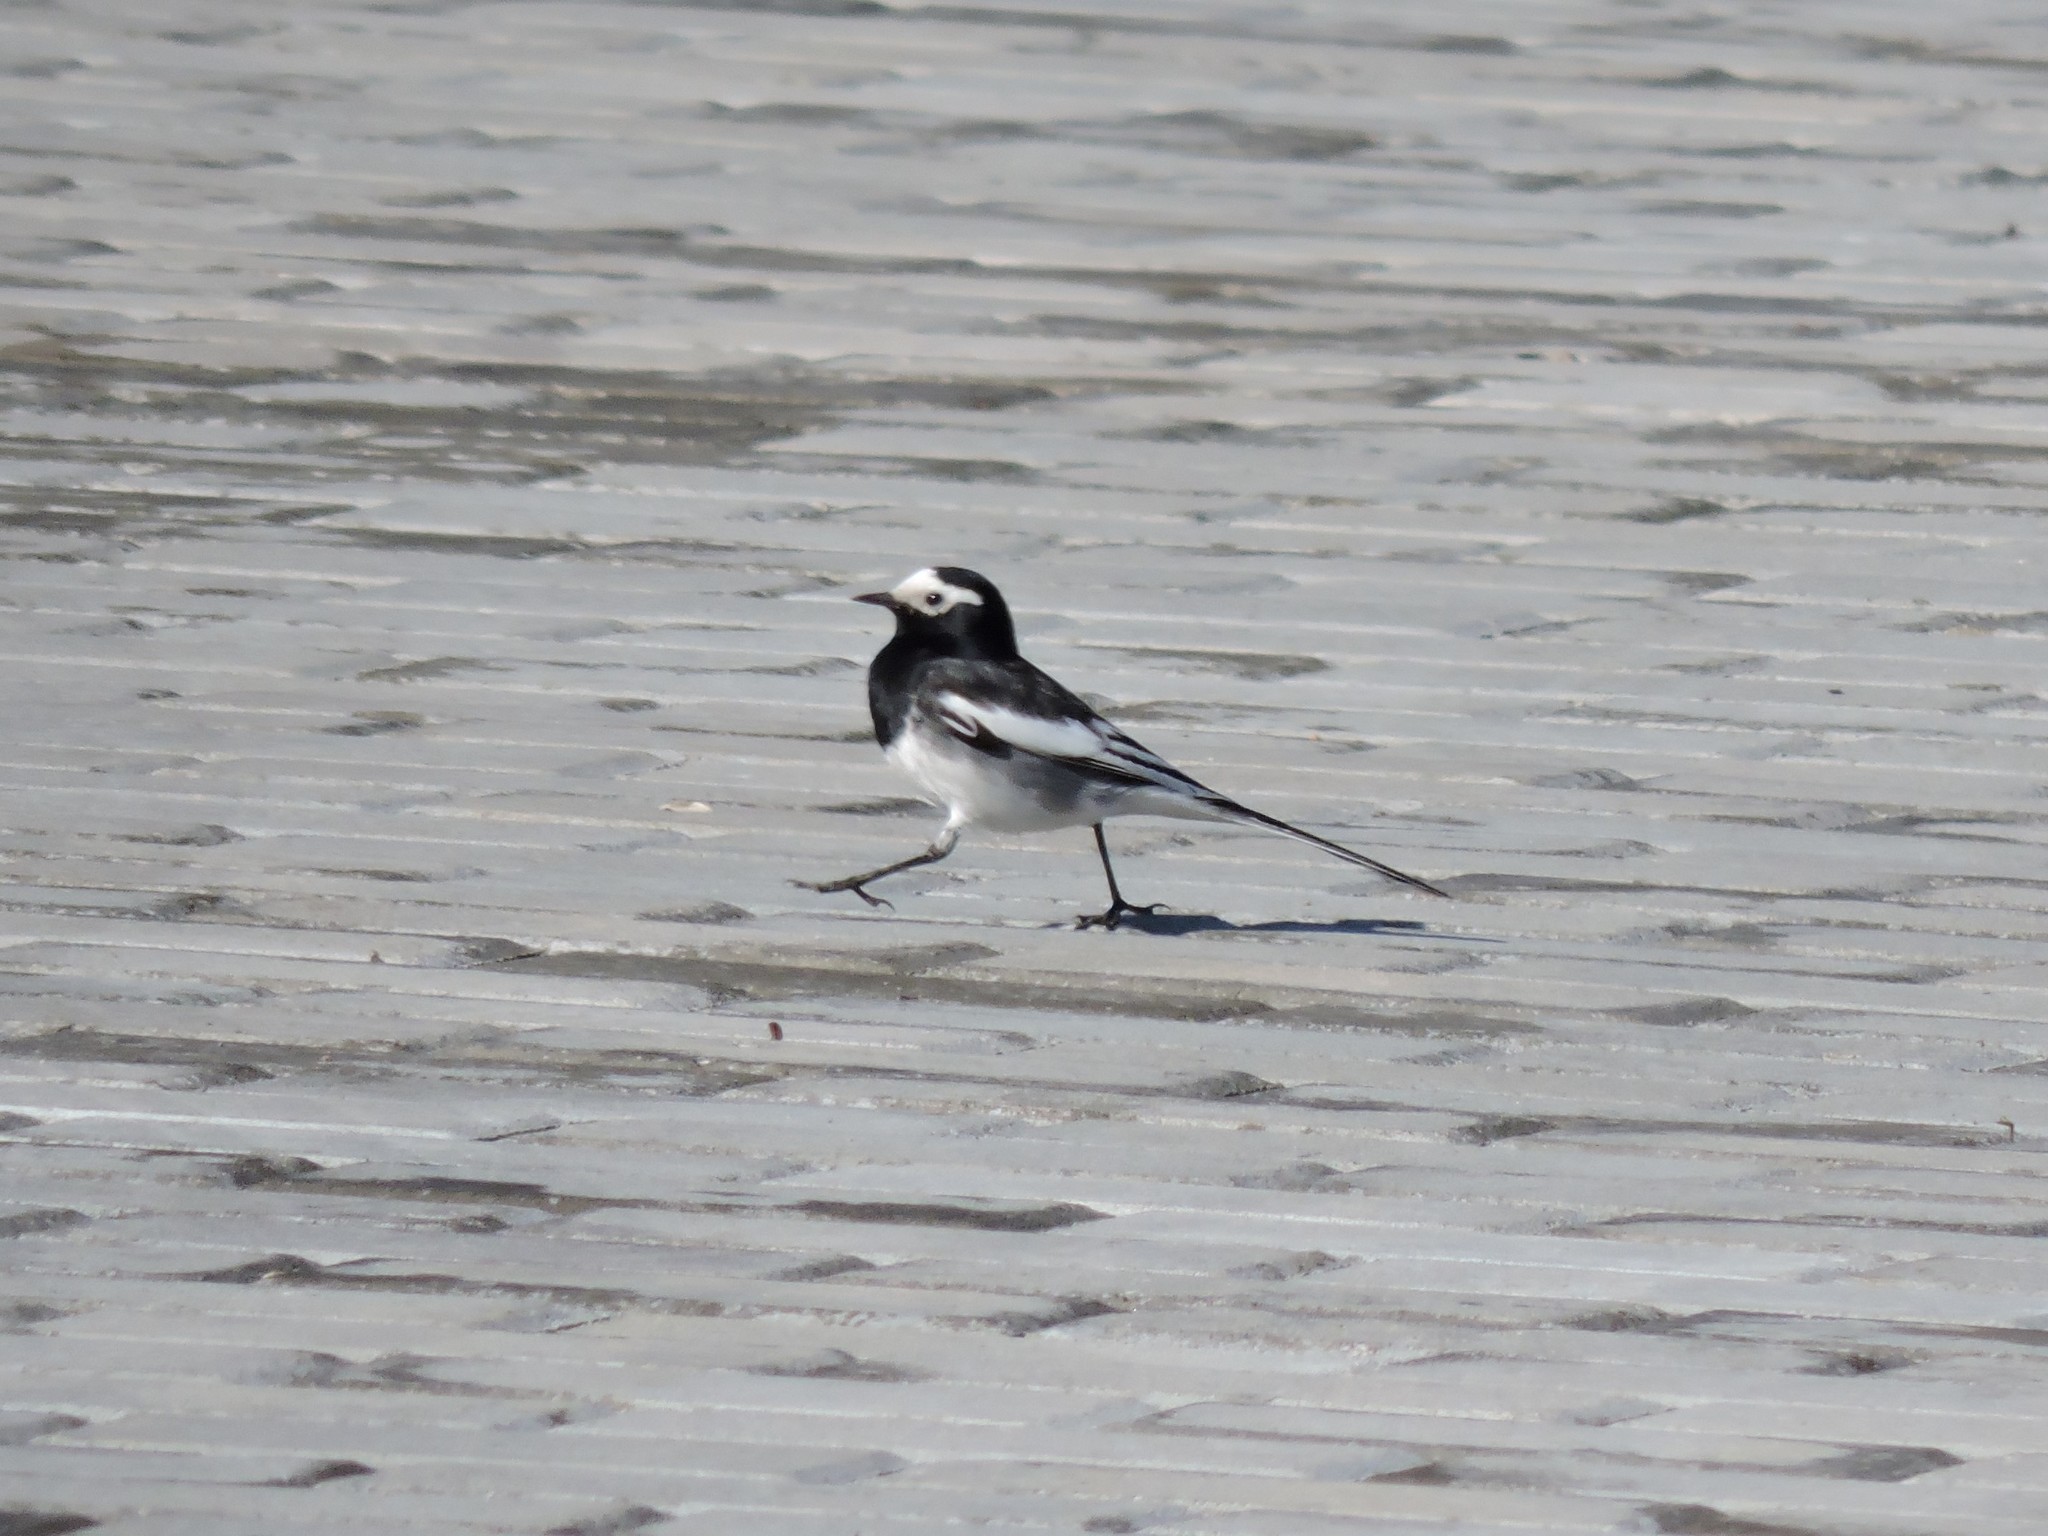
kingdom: Animalia
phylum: Chordata
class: Aves
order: Passeriformes
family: Motacillidae
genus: Motacilla
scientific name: Motacilla alba
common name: White wagtail
